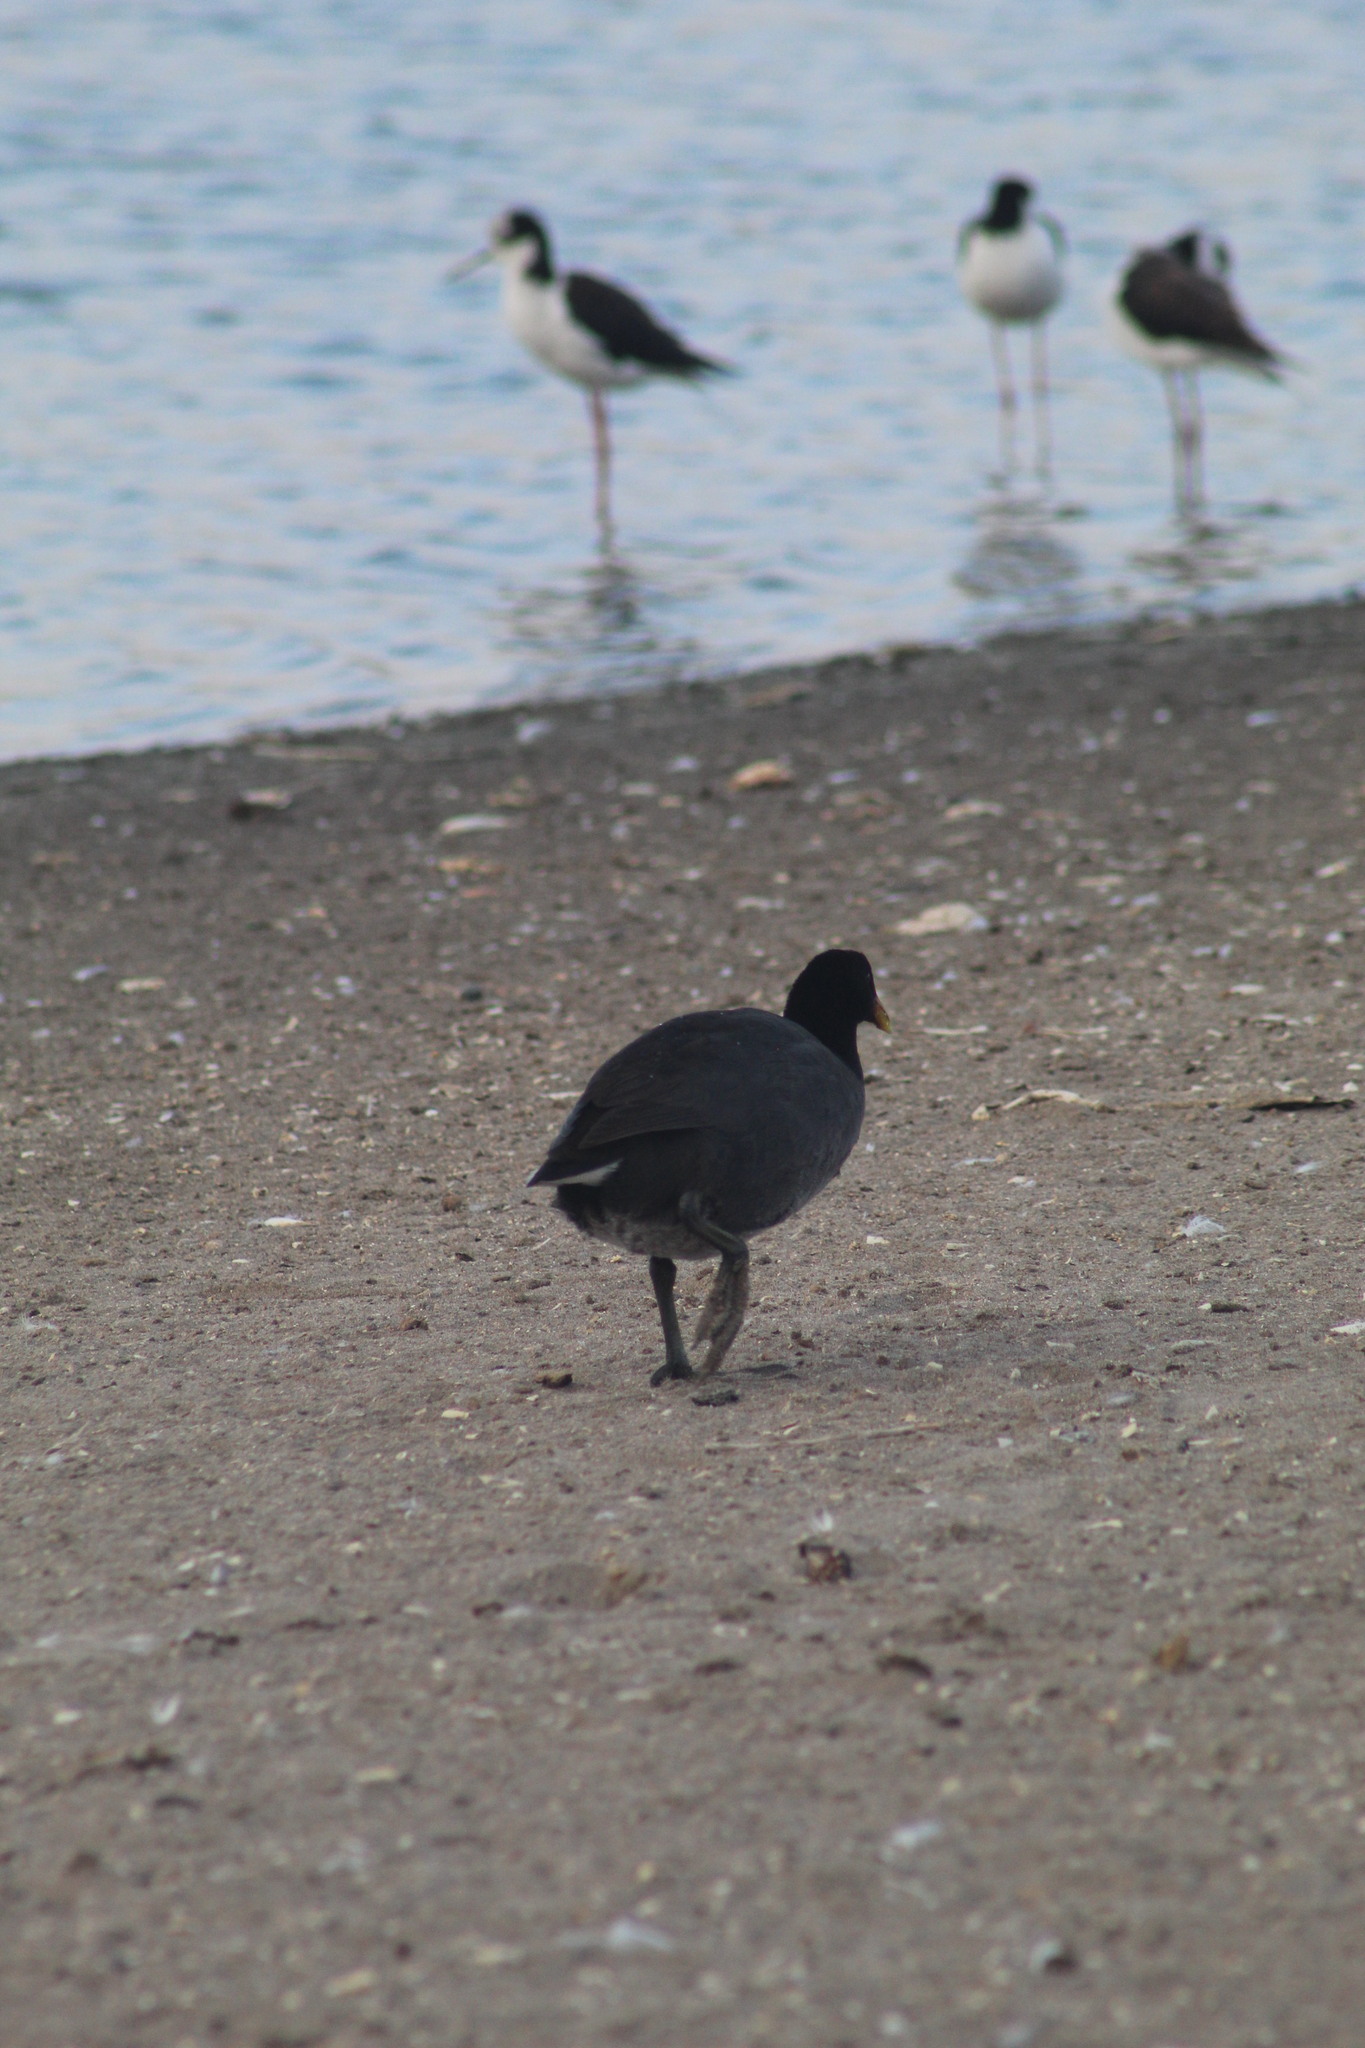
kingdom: Animalia
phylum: Chordata
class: Aves
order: Gruiformes
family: Rallidae
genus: Fulica
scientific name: Fulica rufifrons
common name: Red-fronted coot
